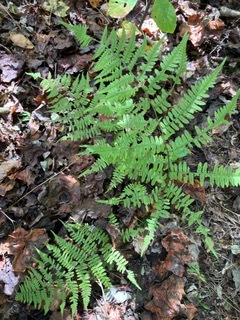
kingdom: Plantae
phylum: Tracheophyta
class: Polypodiopsida
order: Polypodiales
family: Athyriaceae
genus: Athyrium
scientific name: Athyrium asplenioides
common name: Southern lady fern
